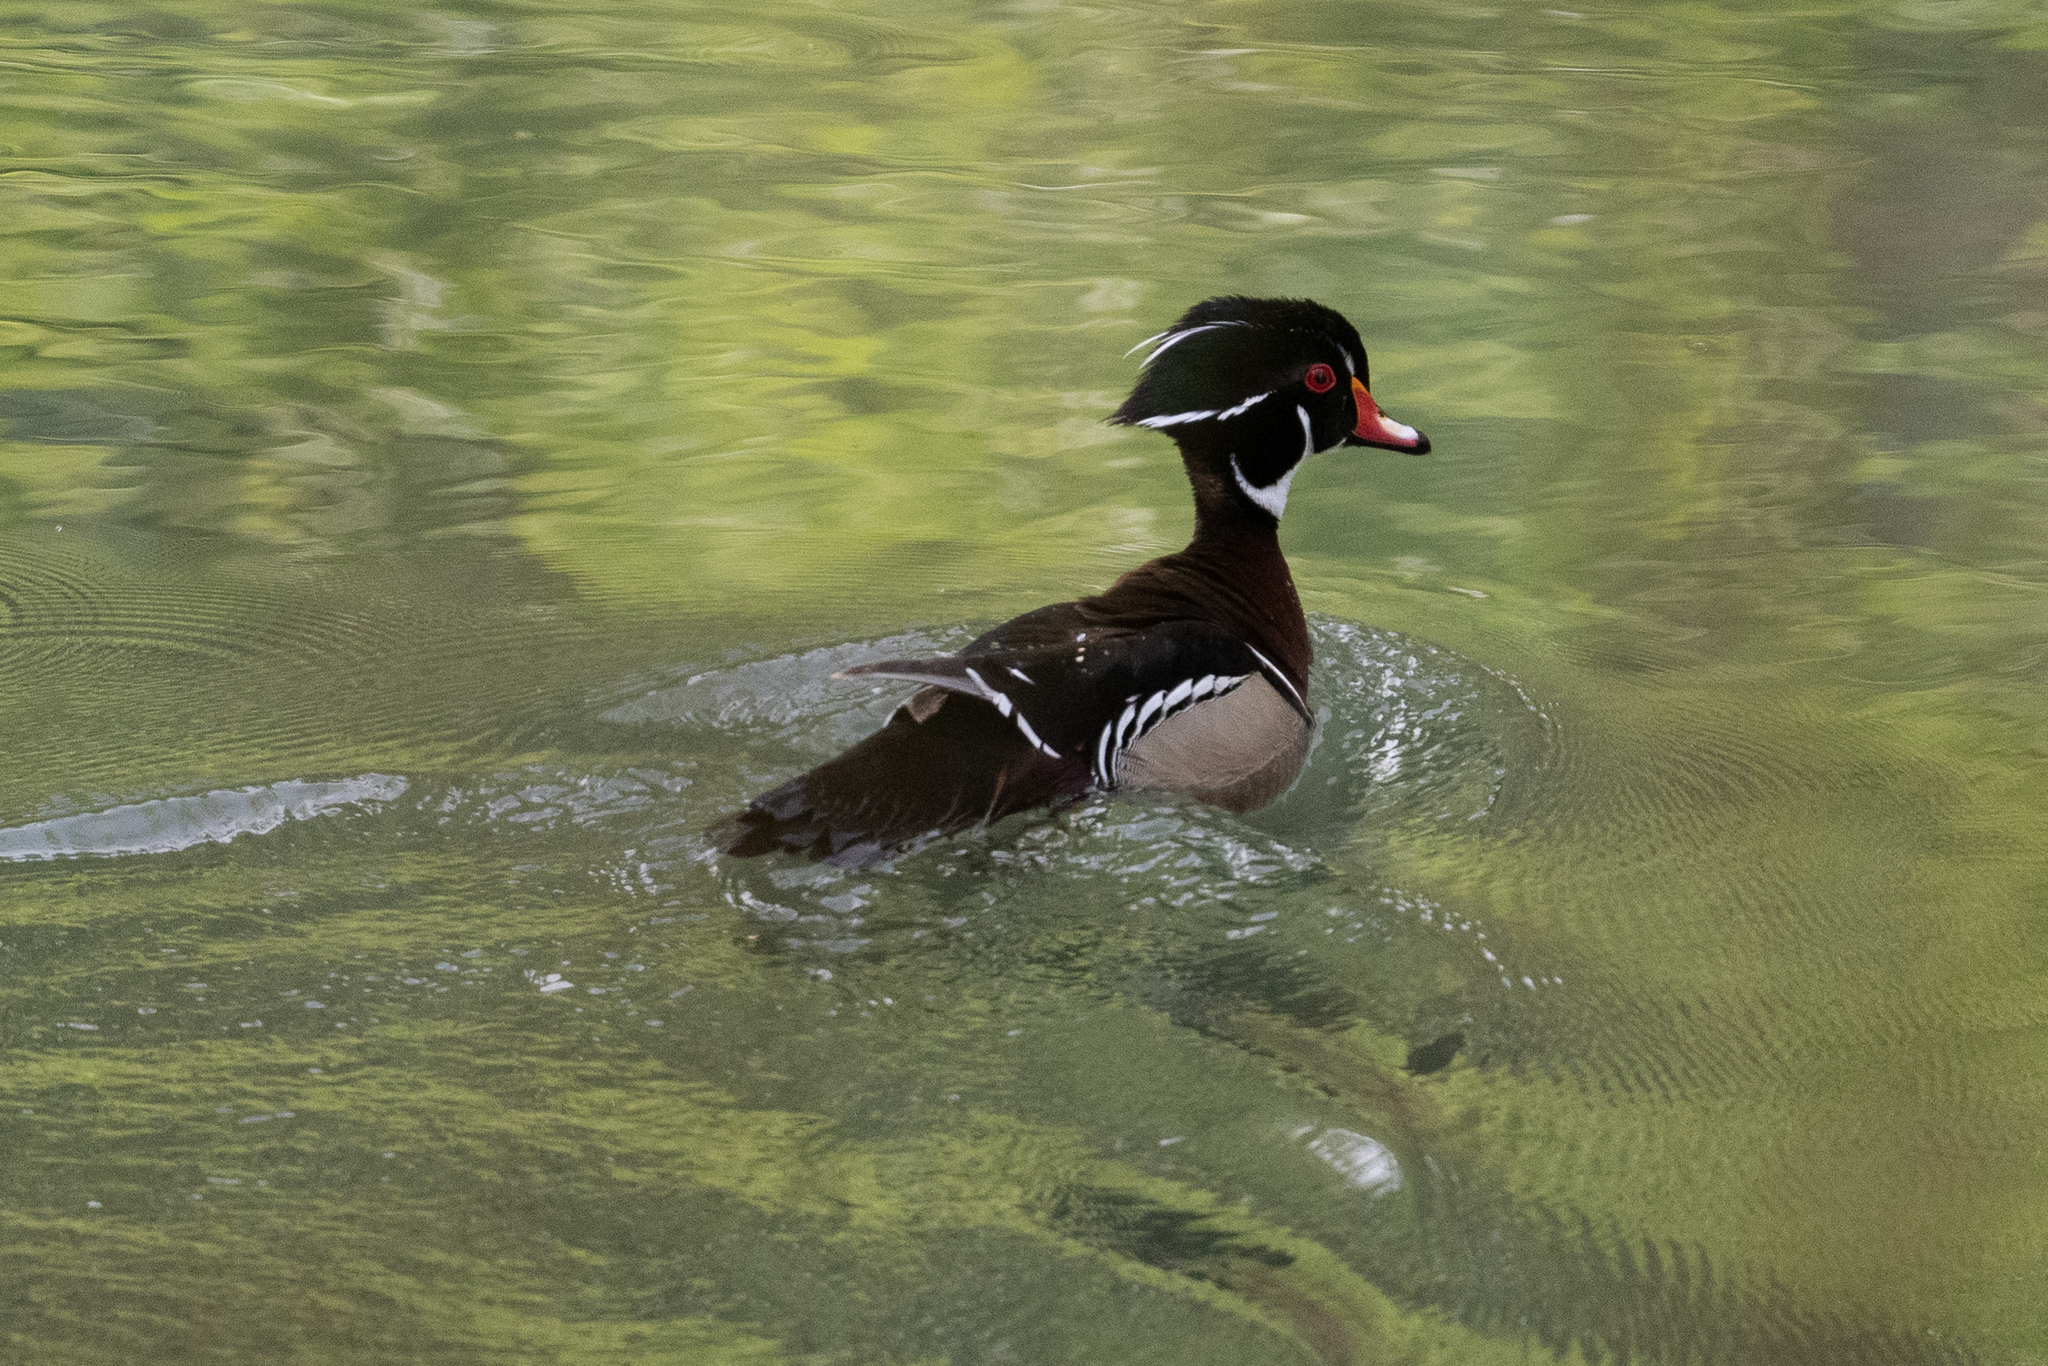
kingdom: Animalia
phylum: Chordata
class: Aves
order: Anseriformes
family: Anatidae
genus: Aix
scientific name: Aix sponsa
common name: Wood duck
